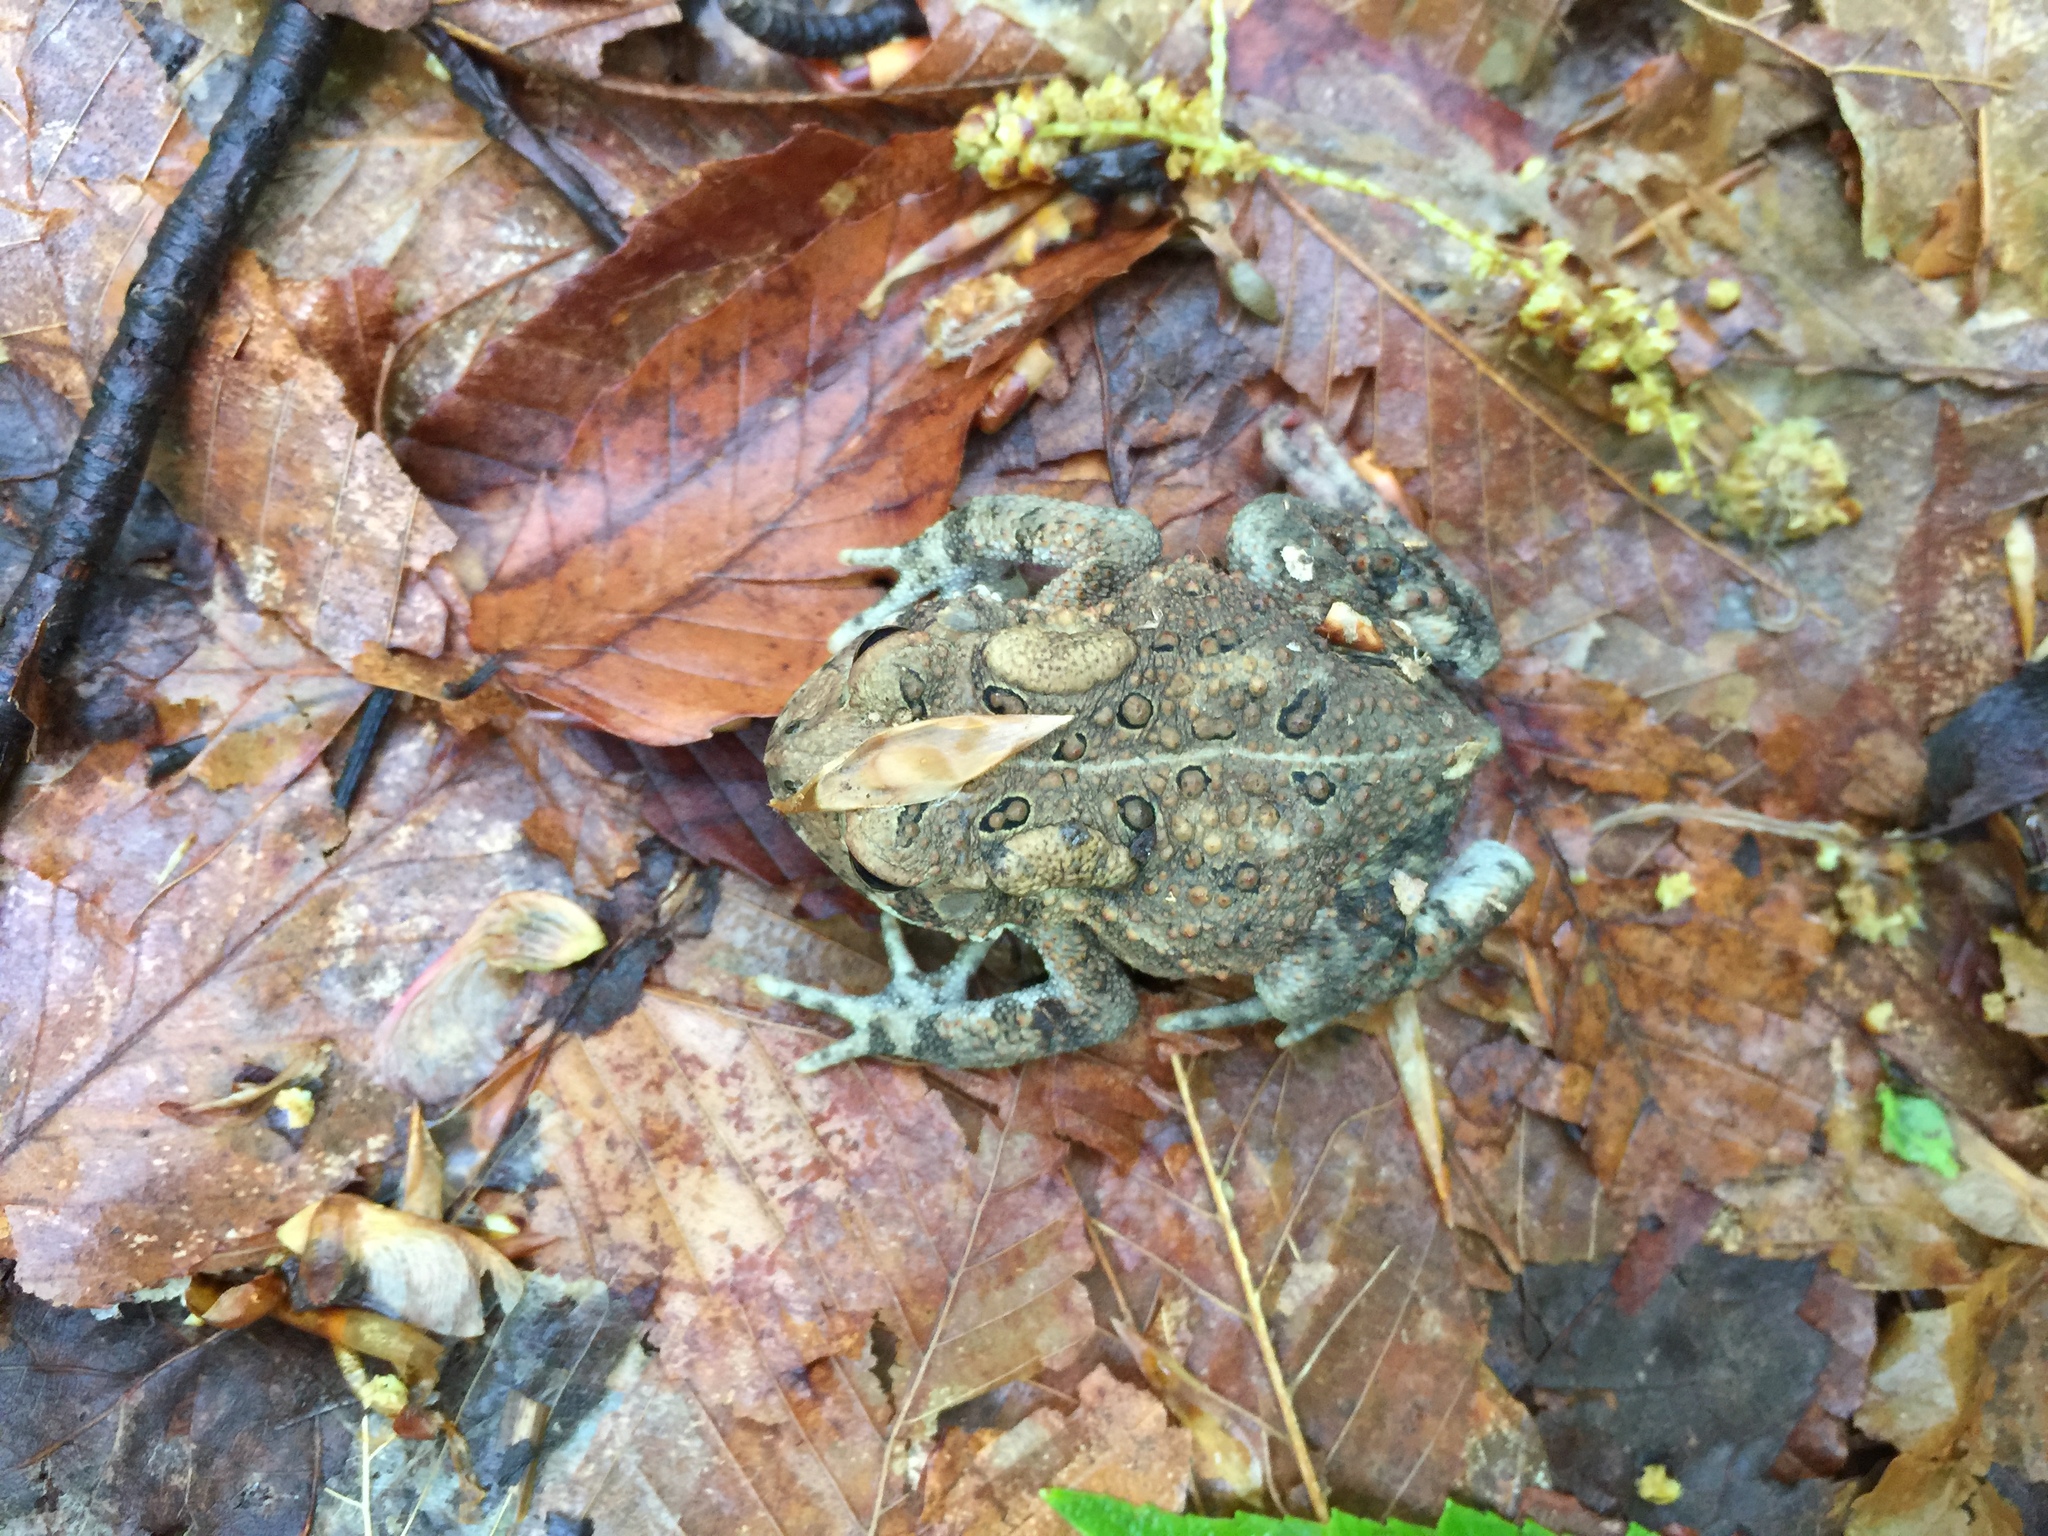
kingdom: Animalia
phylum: Chordata
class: Amphibia
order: Anura
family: Bufonidae
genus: Anaxyrus
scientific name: Anaxyrus americanus
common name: American toad
